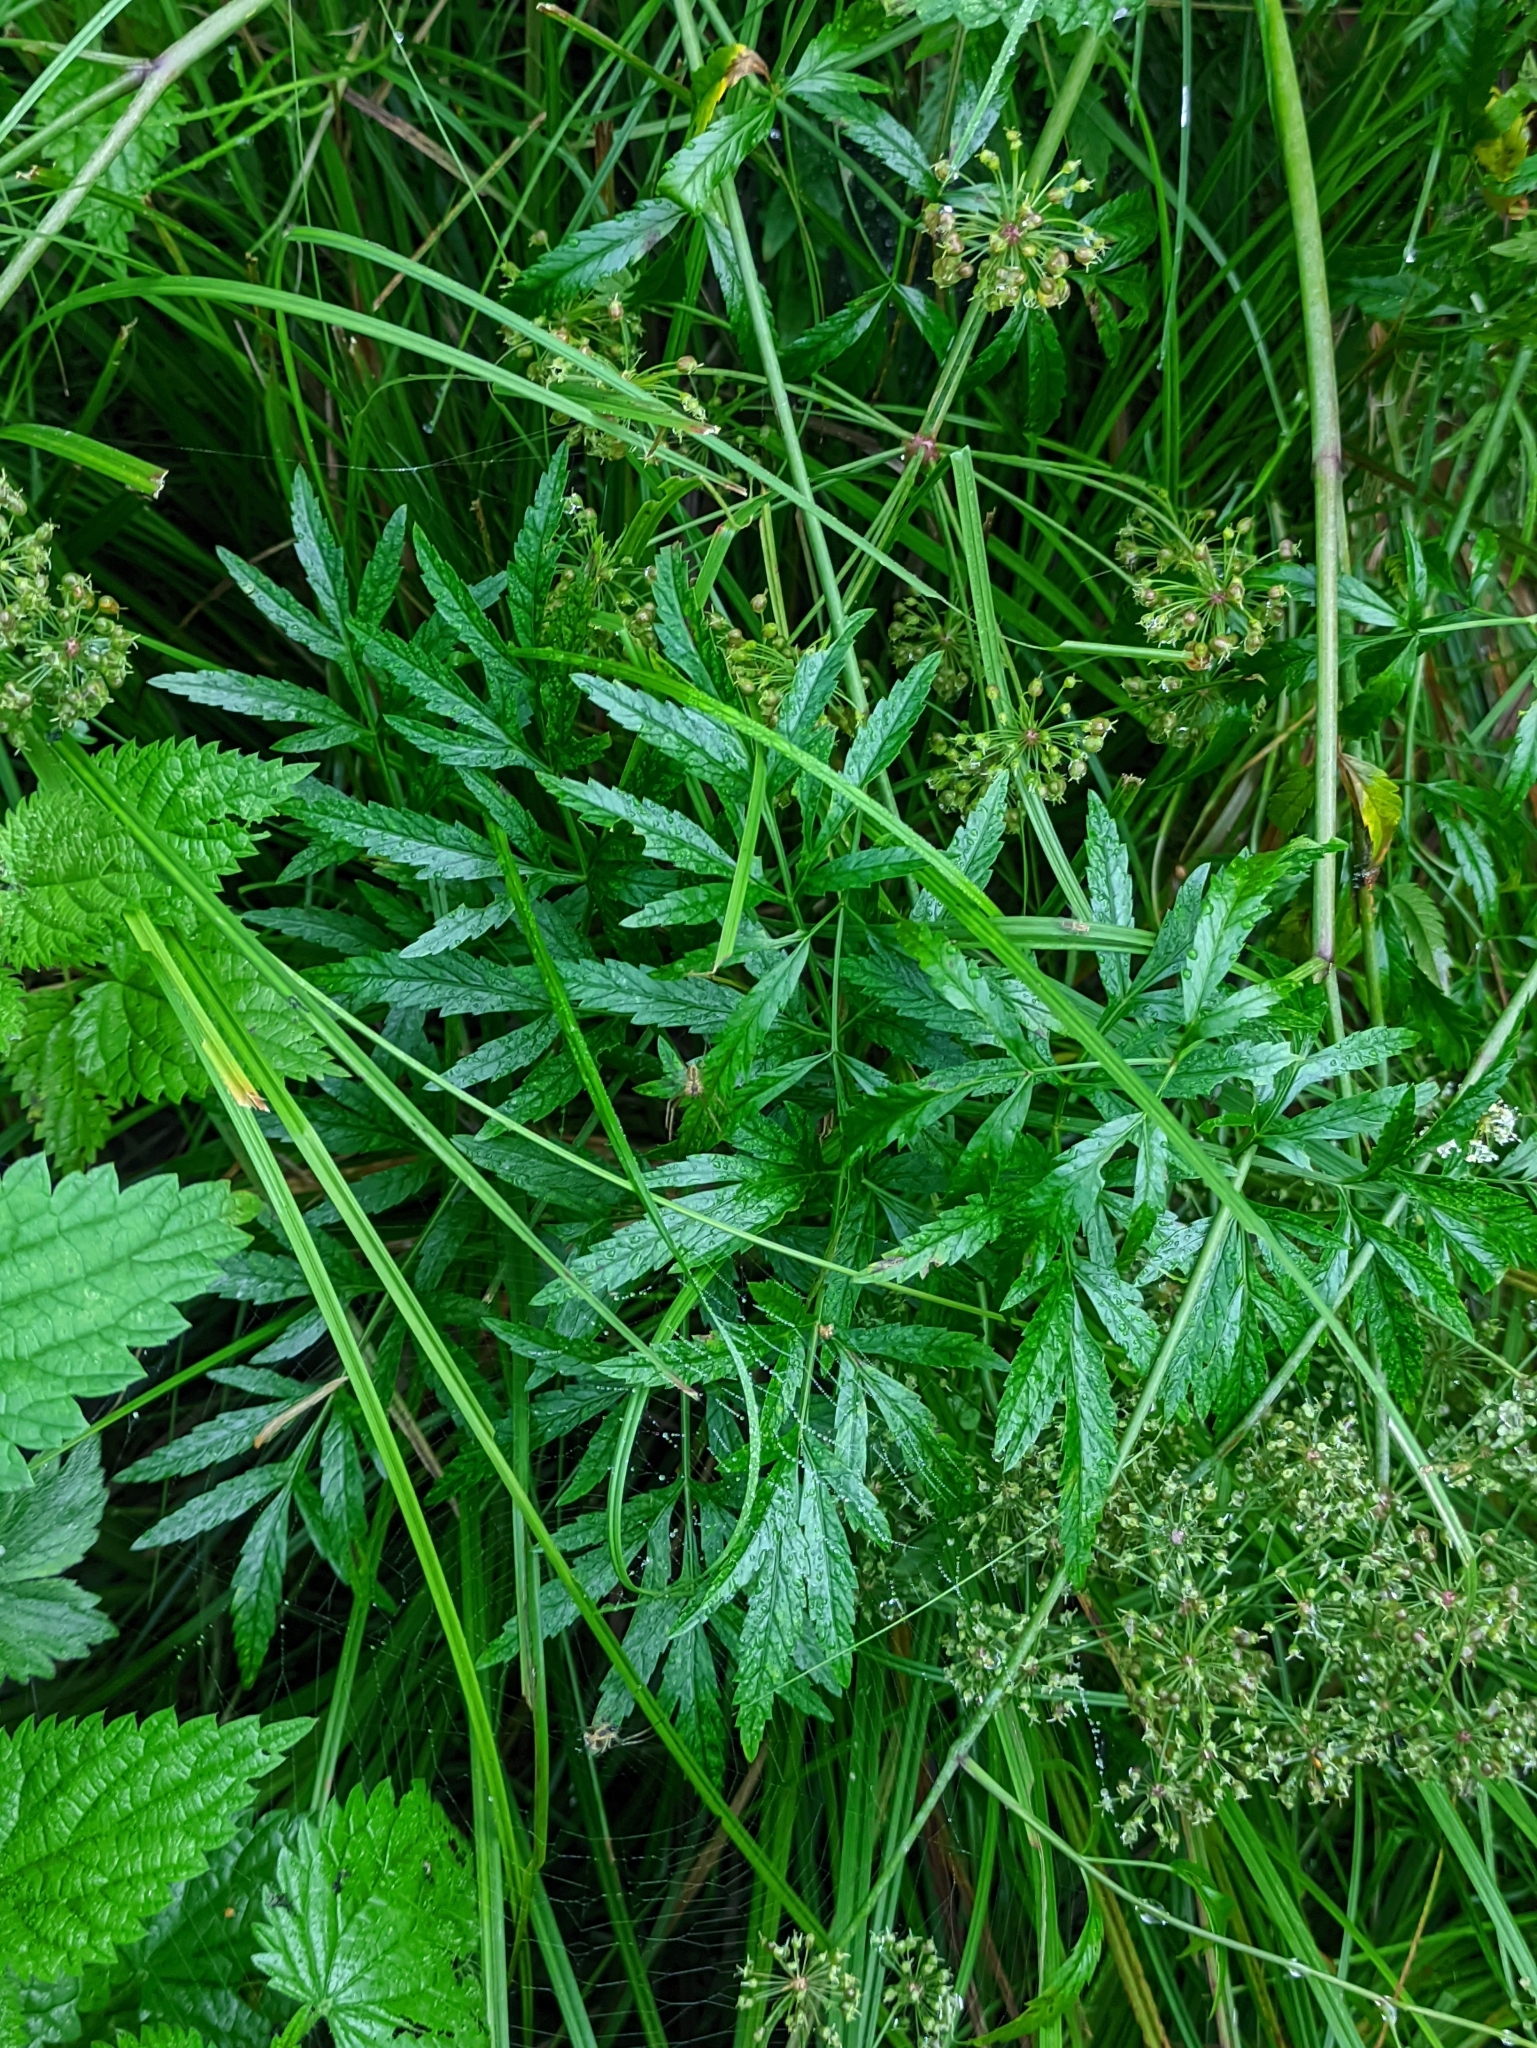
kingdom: Plantae
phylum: Tracheophyta
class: Magnoliopsida
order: Apiales
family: Apiaceae
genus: Cicuta
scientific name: Cicuta virosa
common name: Cowbane
